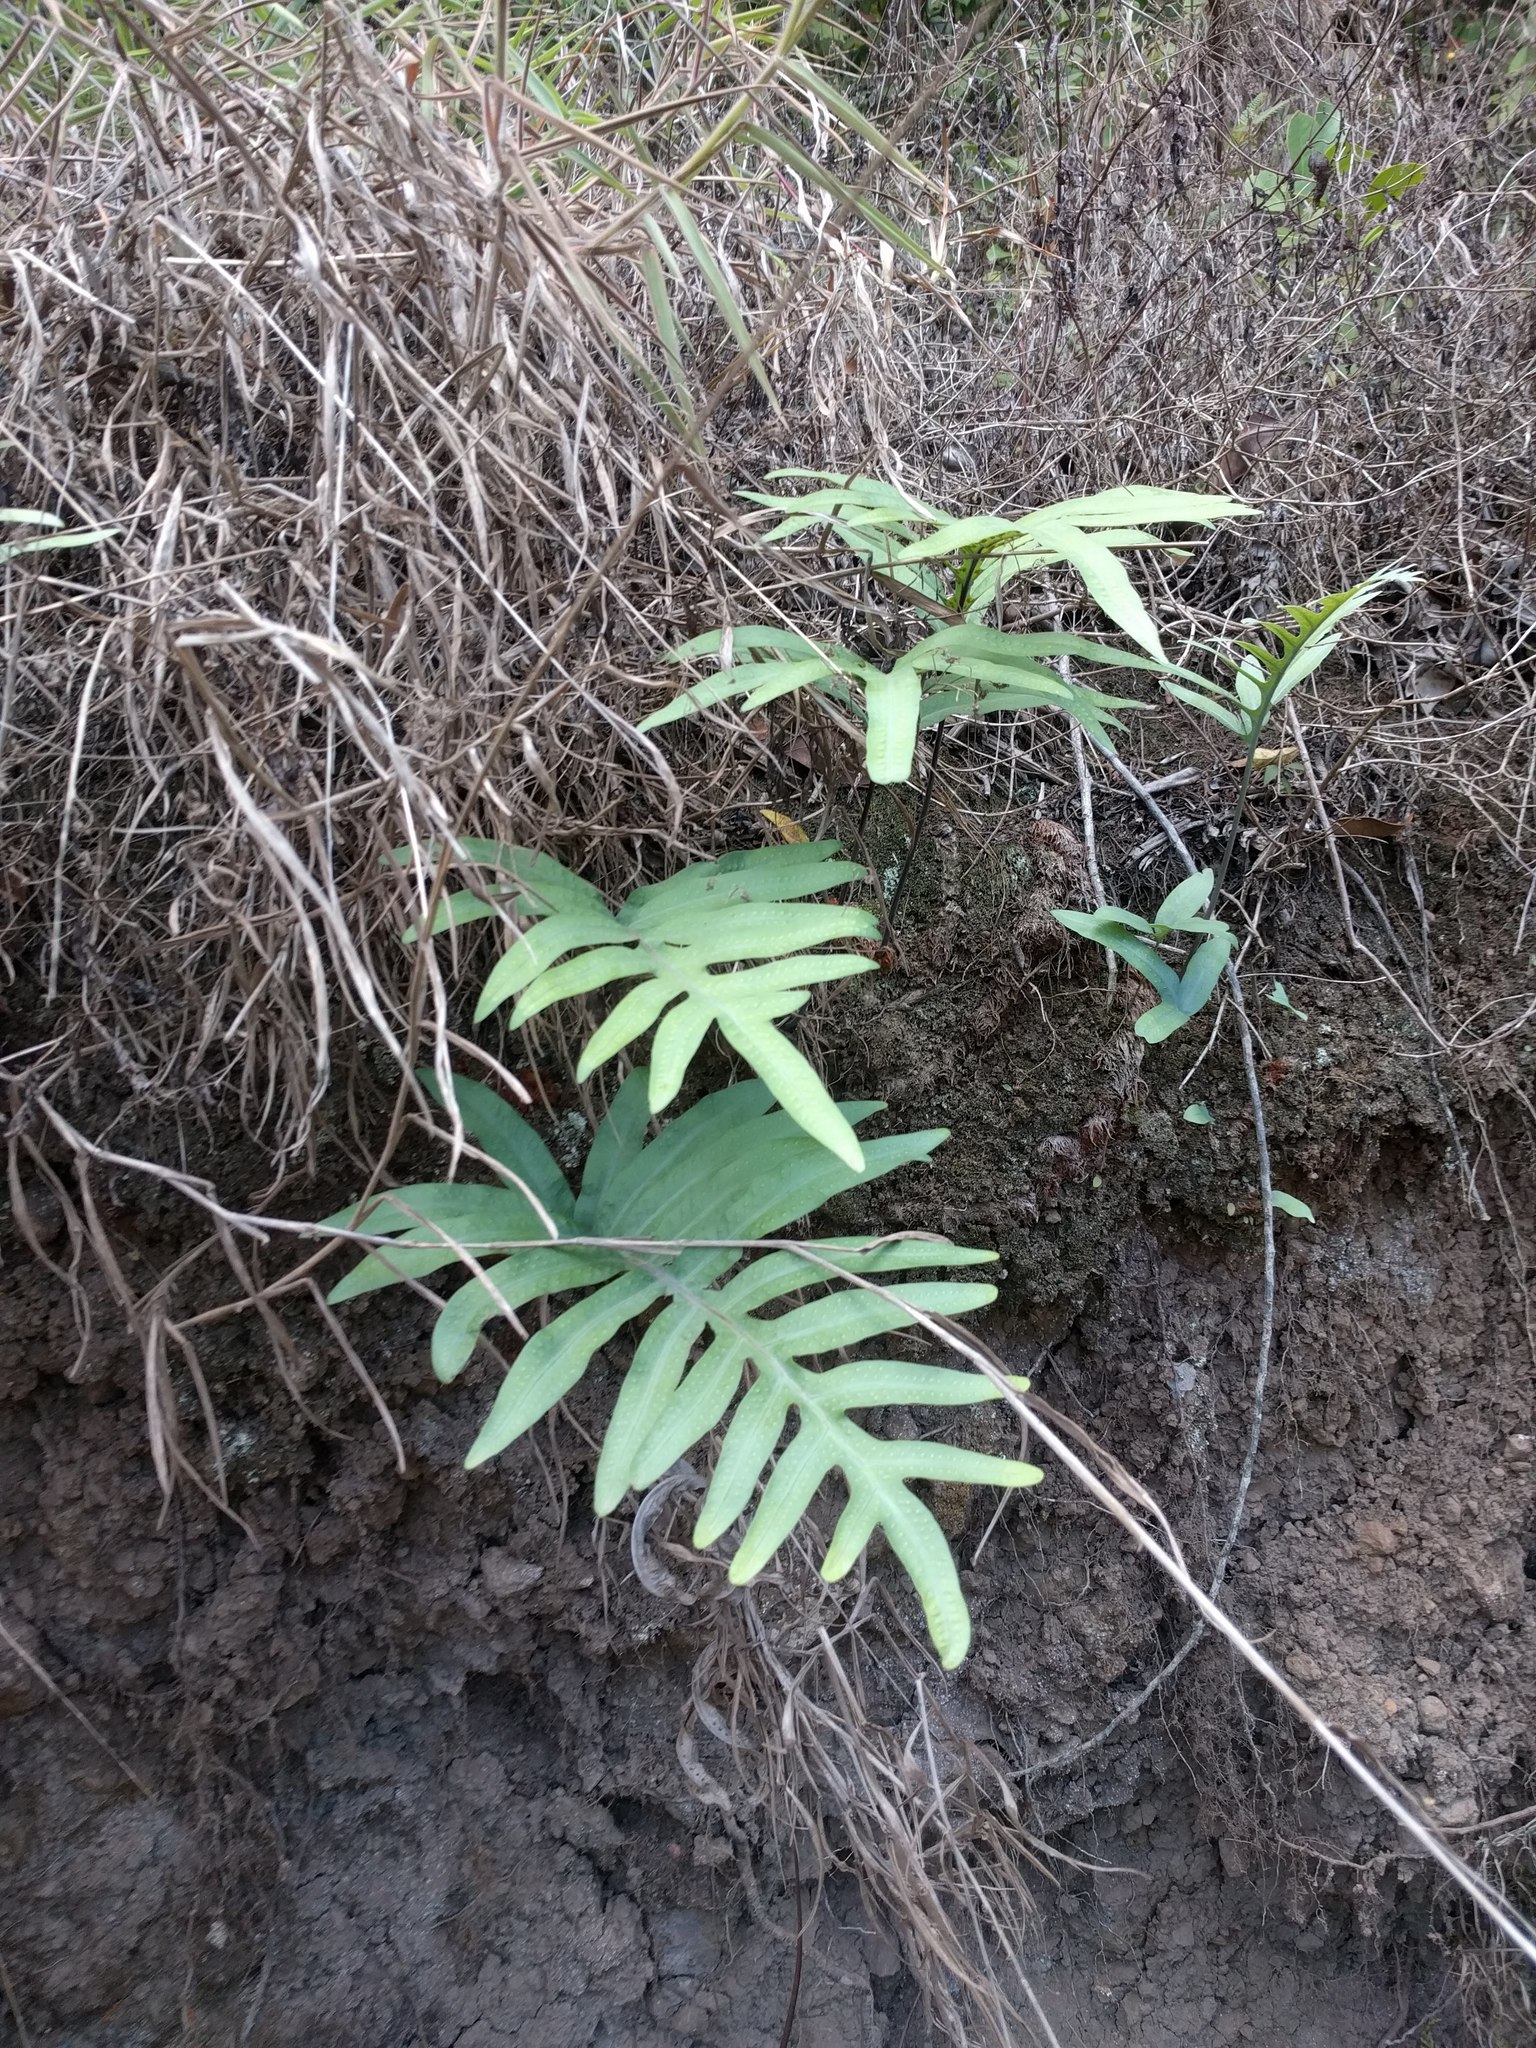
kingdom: Plantae
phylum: Tracheophyta
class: Polypodiopsida
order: Polypodiales
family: Polypodiaceae
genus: Phlebodium
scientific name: Phlebodium aureum
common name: Gold-foot fern
